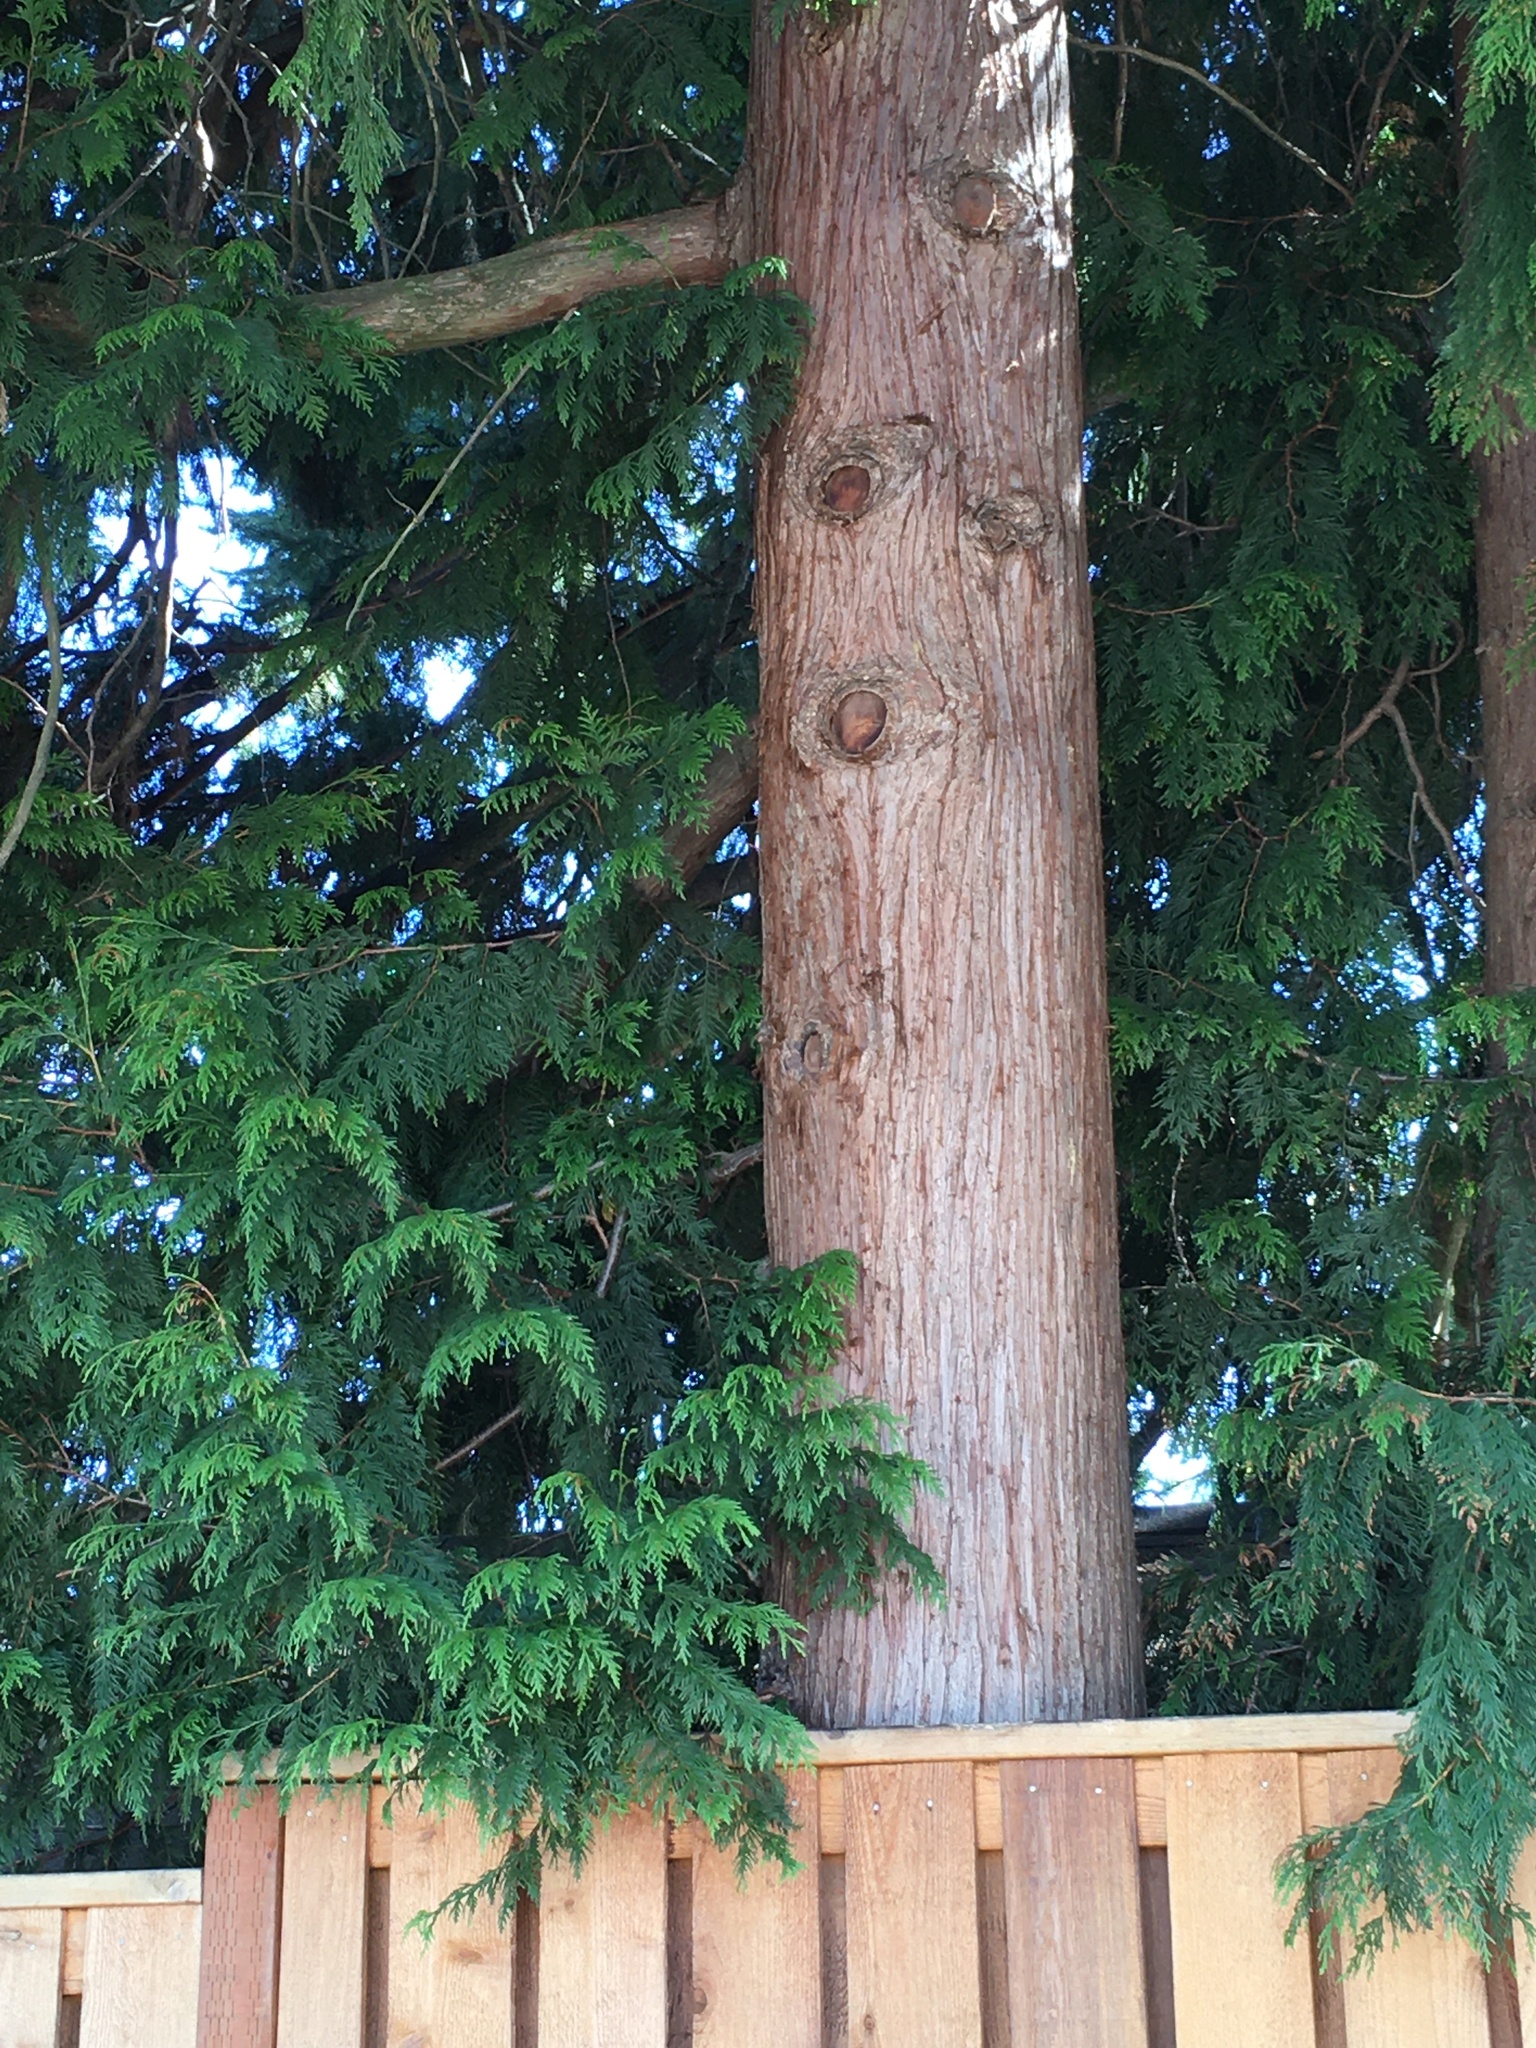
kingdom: Plantae
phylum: Tracheophyta
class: Pinopsida
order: Pinales
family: Cupressaceae
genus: Thuja
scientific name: Thuja plicata
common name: Western red-cedar
